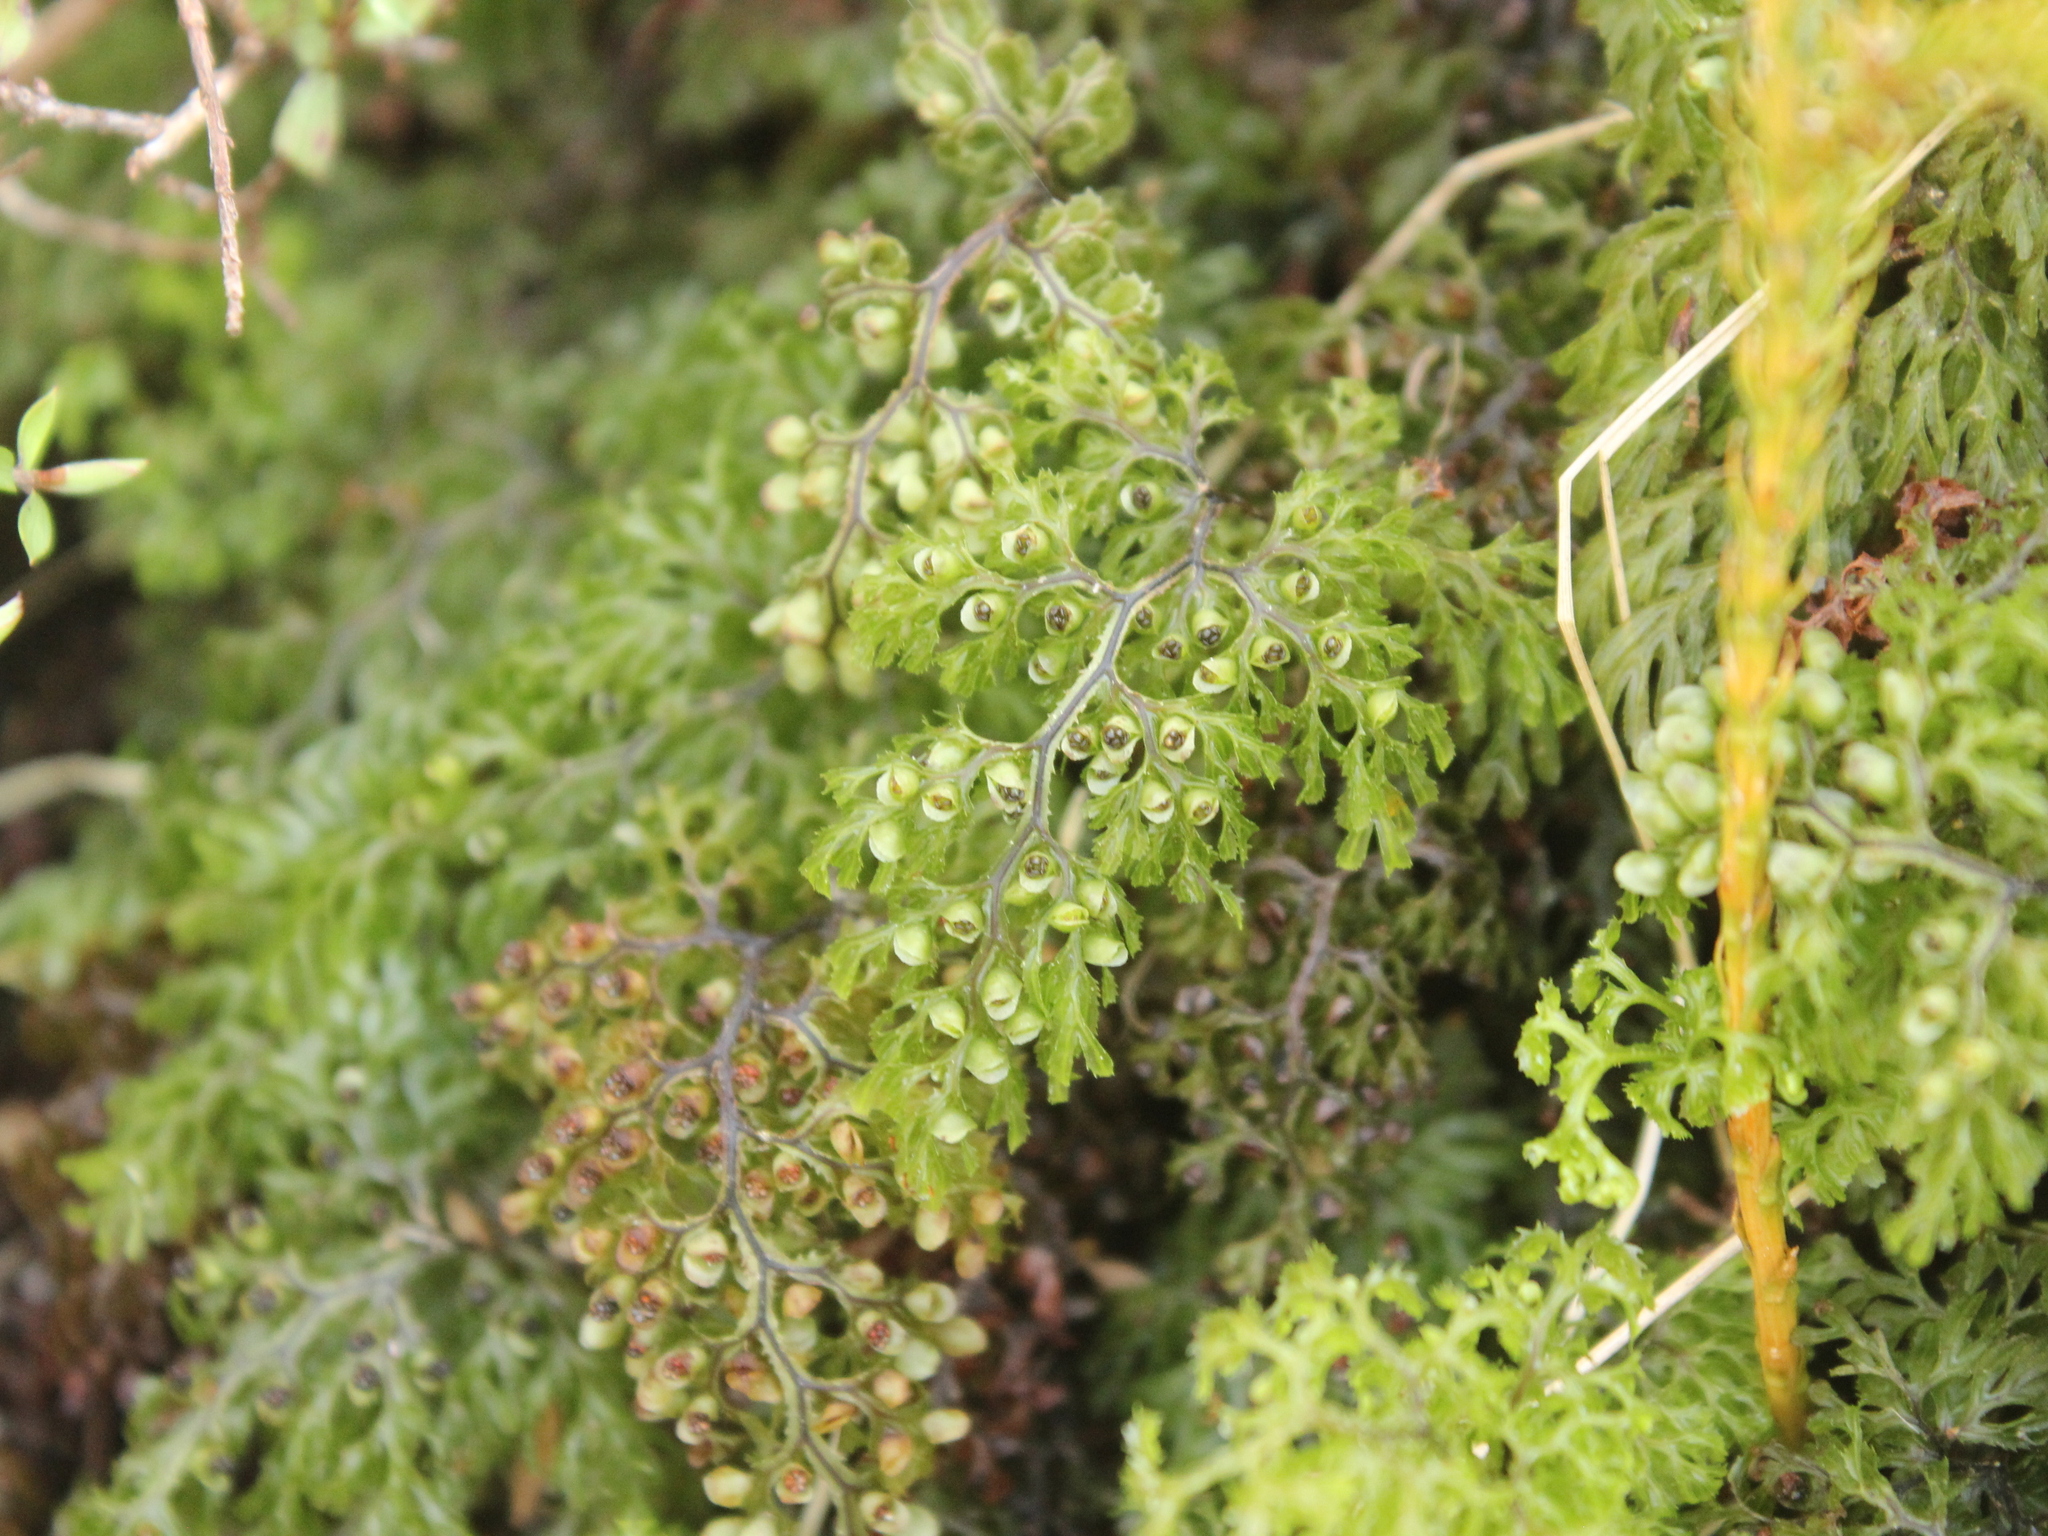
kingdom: Plantae
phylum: Tracheophyta
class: Polypodiopsida
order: Hymenophyllales
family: Hymenophyllaceae
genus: Hymenophyllum
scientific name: Hymenophyllum multifidum
